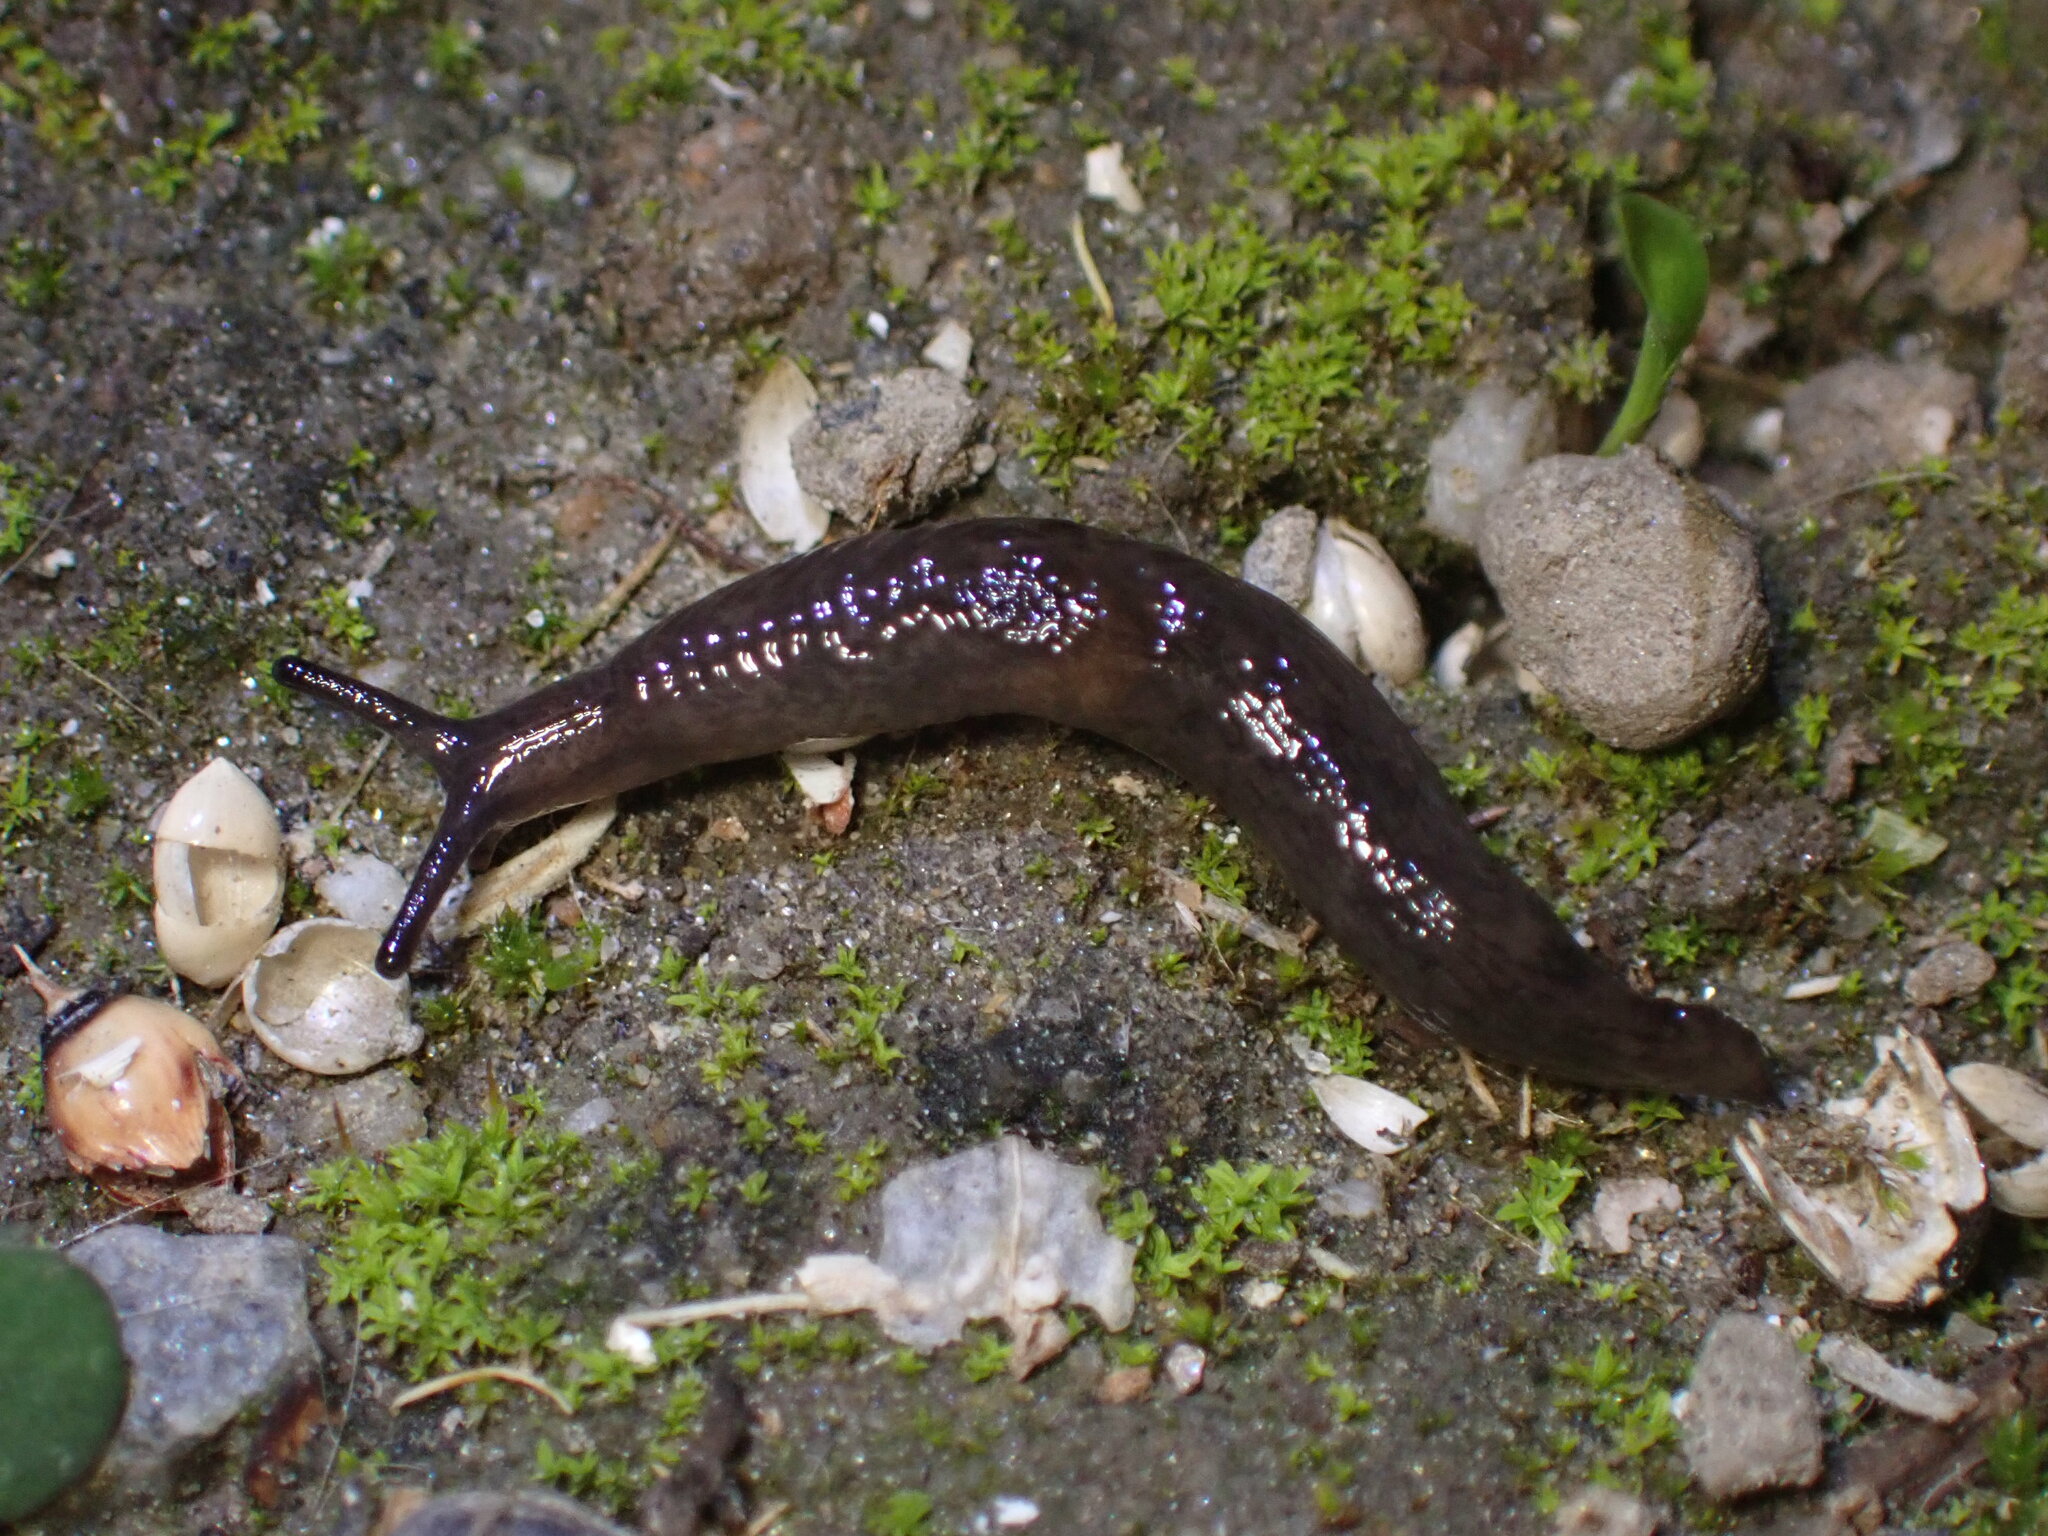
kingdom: Animalia
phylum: Mollusca
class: Gastropoda
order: Stylommatophora
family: Agriolimacidae
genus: Deroceras
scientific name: Deroceras laeve
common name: Marsh slug
